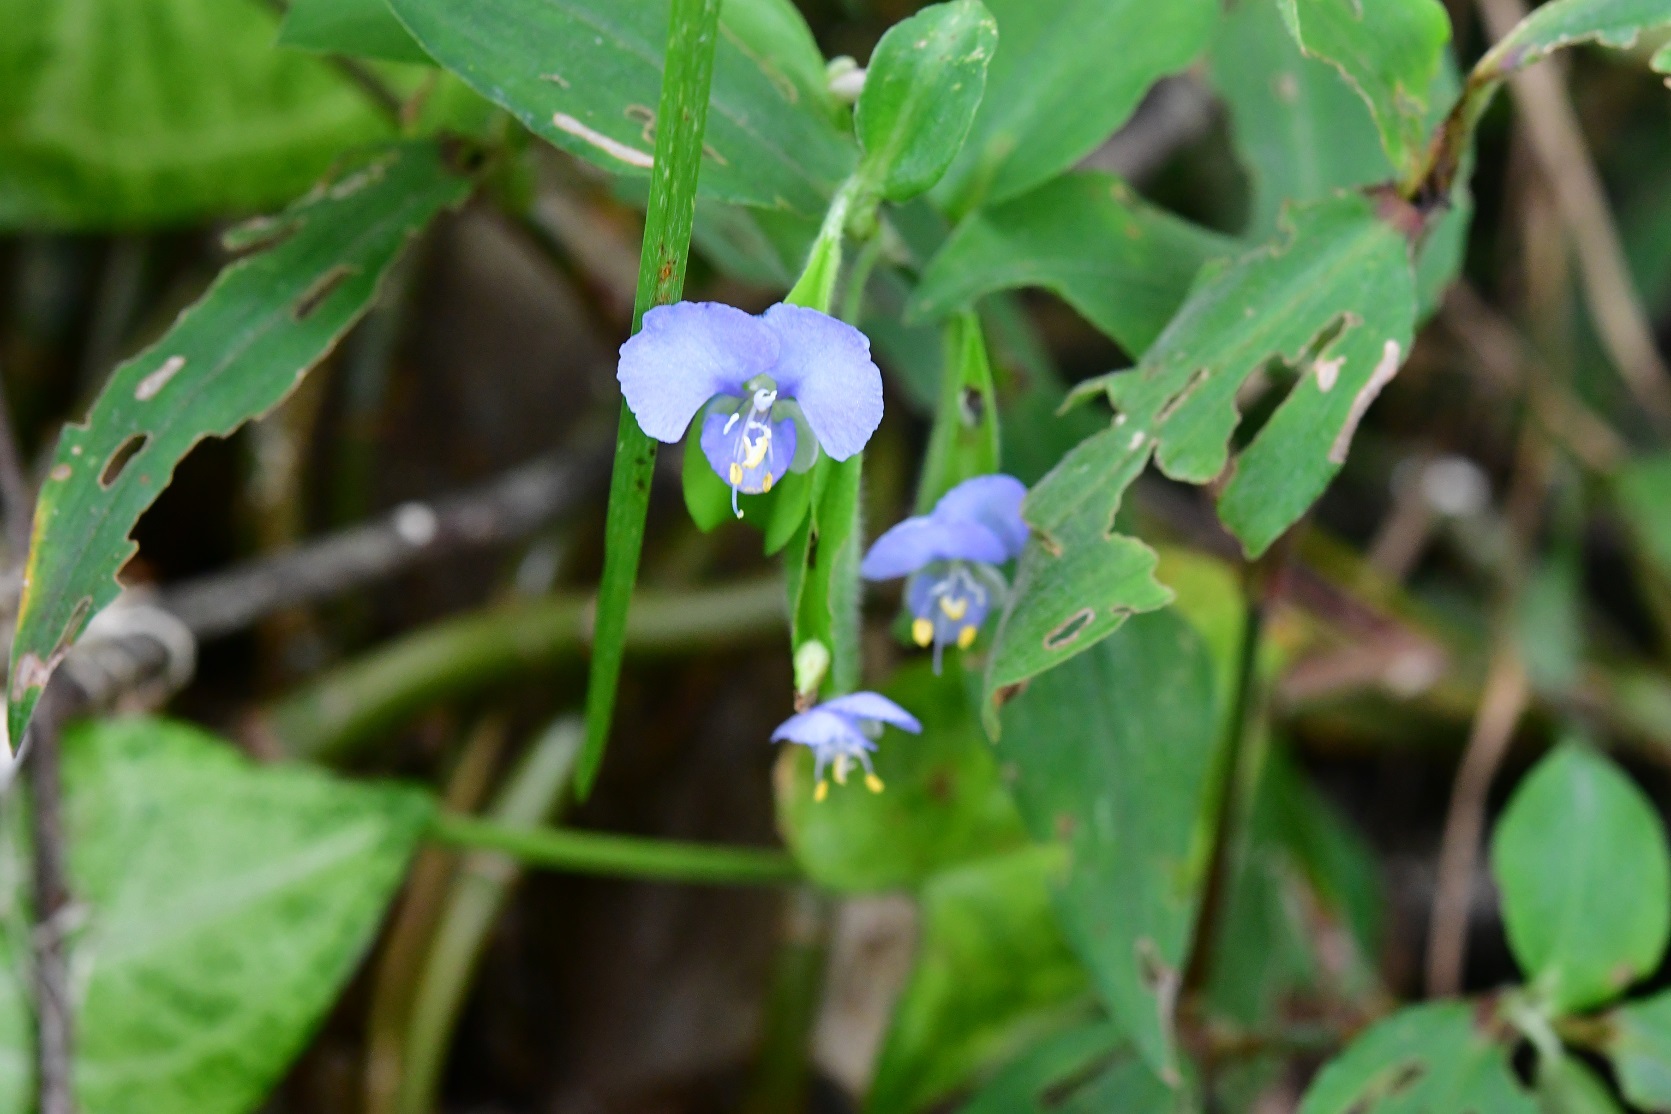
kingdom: Plantae
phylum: Tracheophyta
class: Liliopsida
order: Commelinales
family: Commelinaceae
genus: Commelina
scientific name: Commelina diffusa
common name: Climbing dayflower
